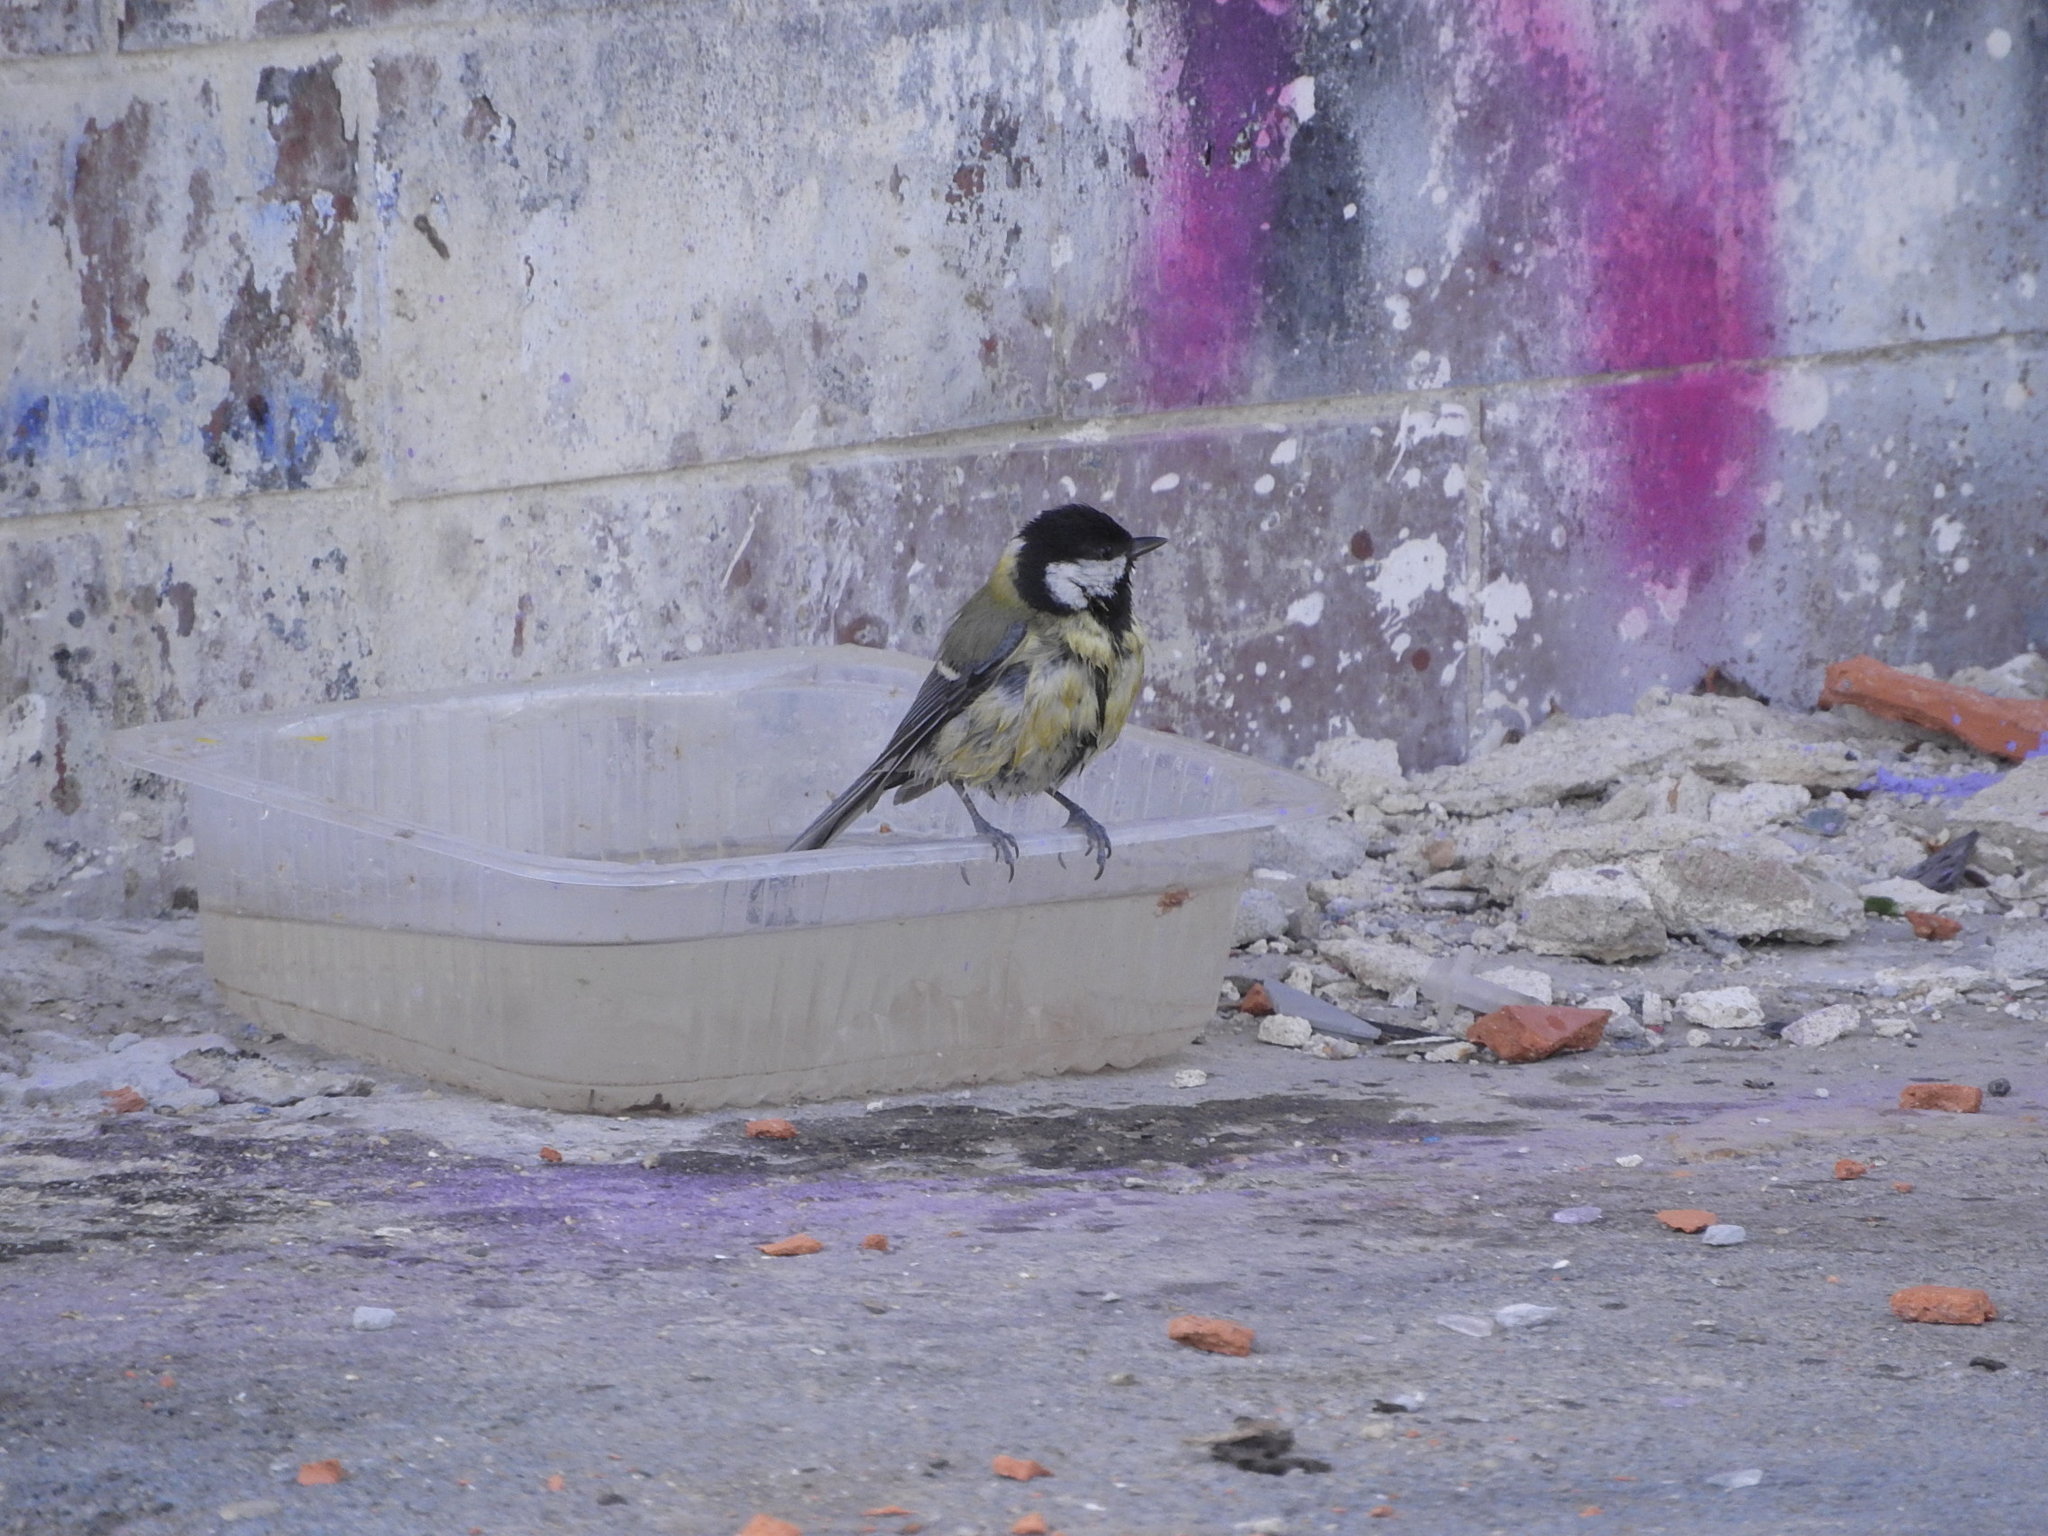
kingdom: Animalia
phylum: Chordata
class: Aves
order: Passeriformes
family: Paridae
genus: Parus
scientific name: Parus major
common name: Great tit
